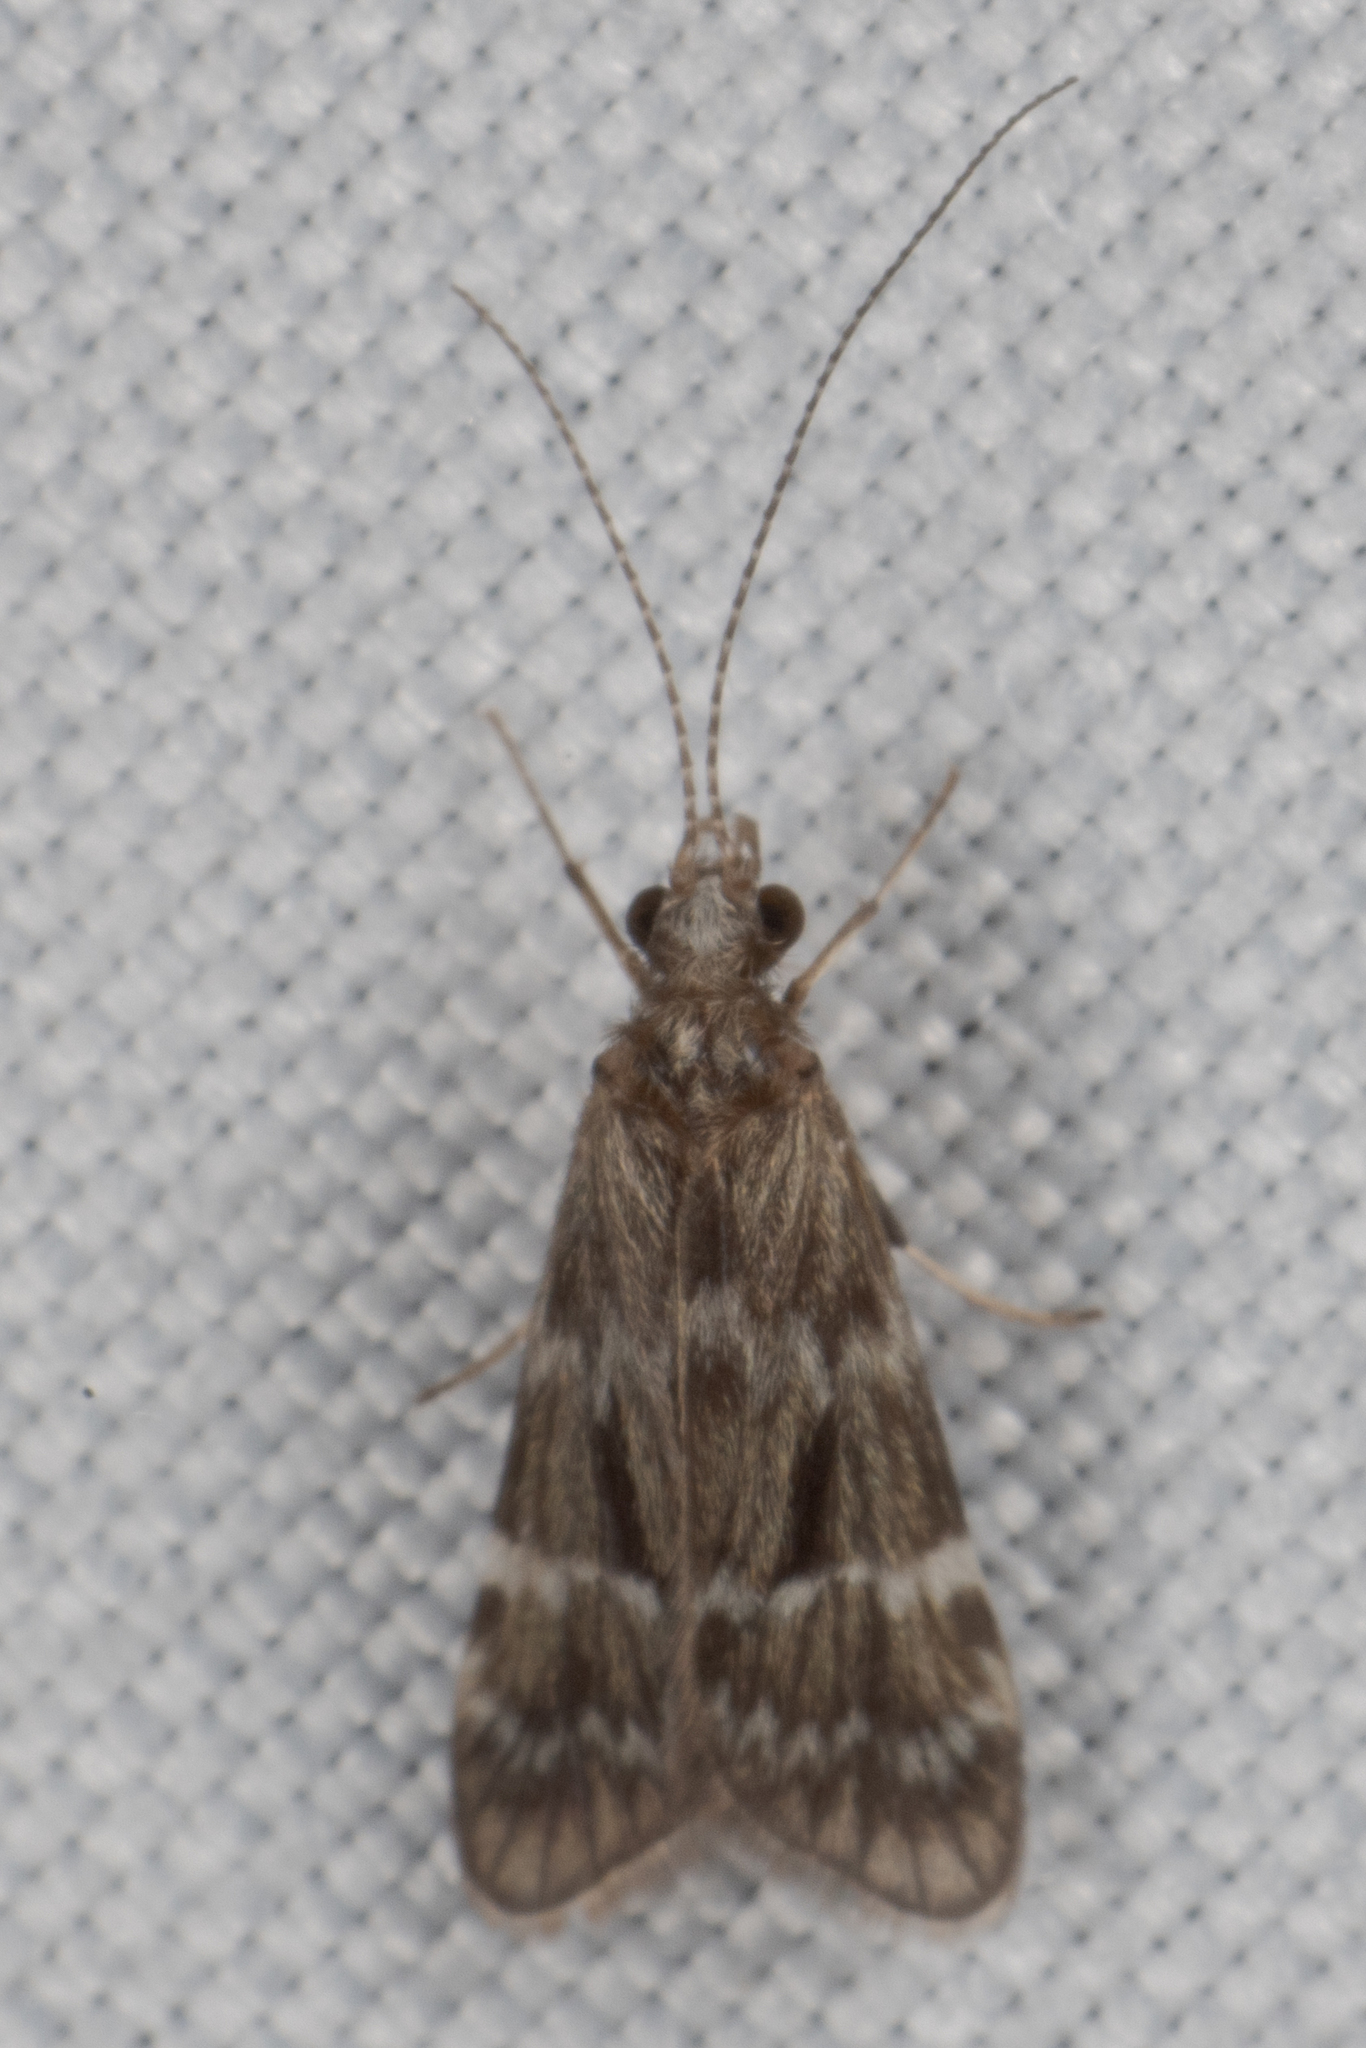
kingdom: Animalia
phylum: Arthropoda
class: Insecta
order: Trichoptera
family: Hydropsychidae
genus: Smicridea
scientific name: Smicridea fasciatella
